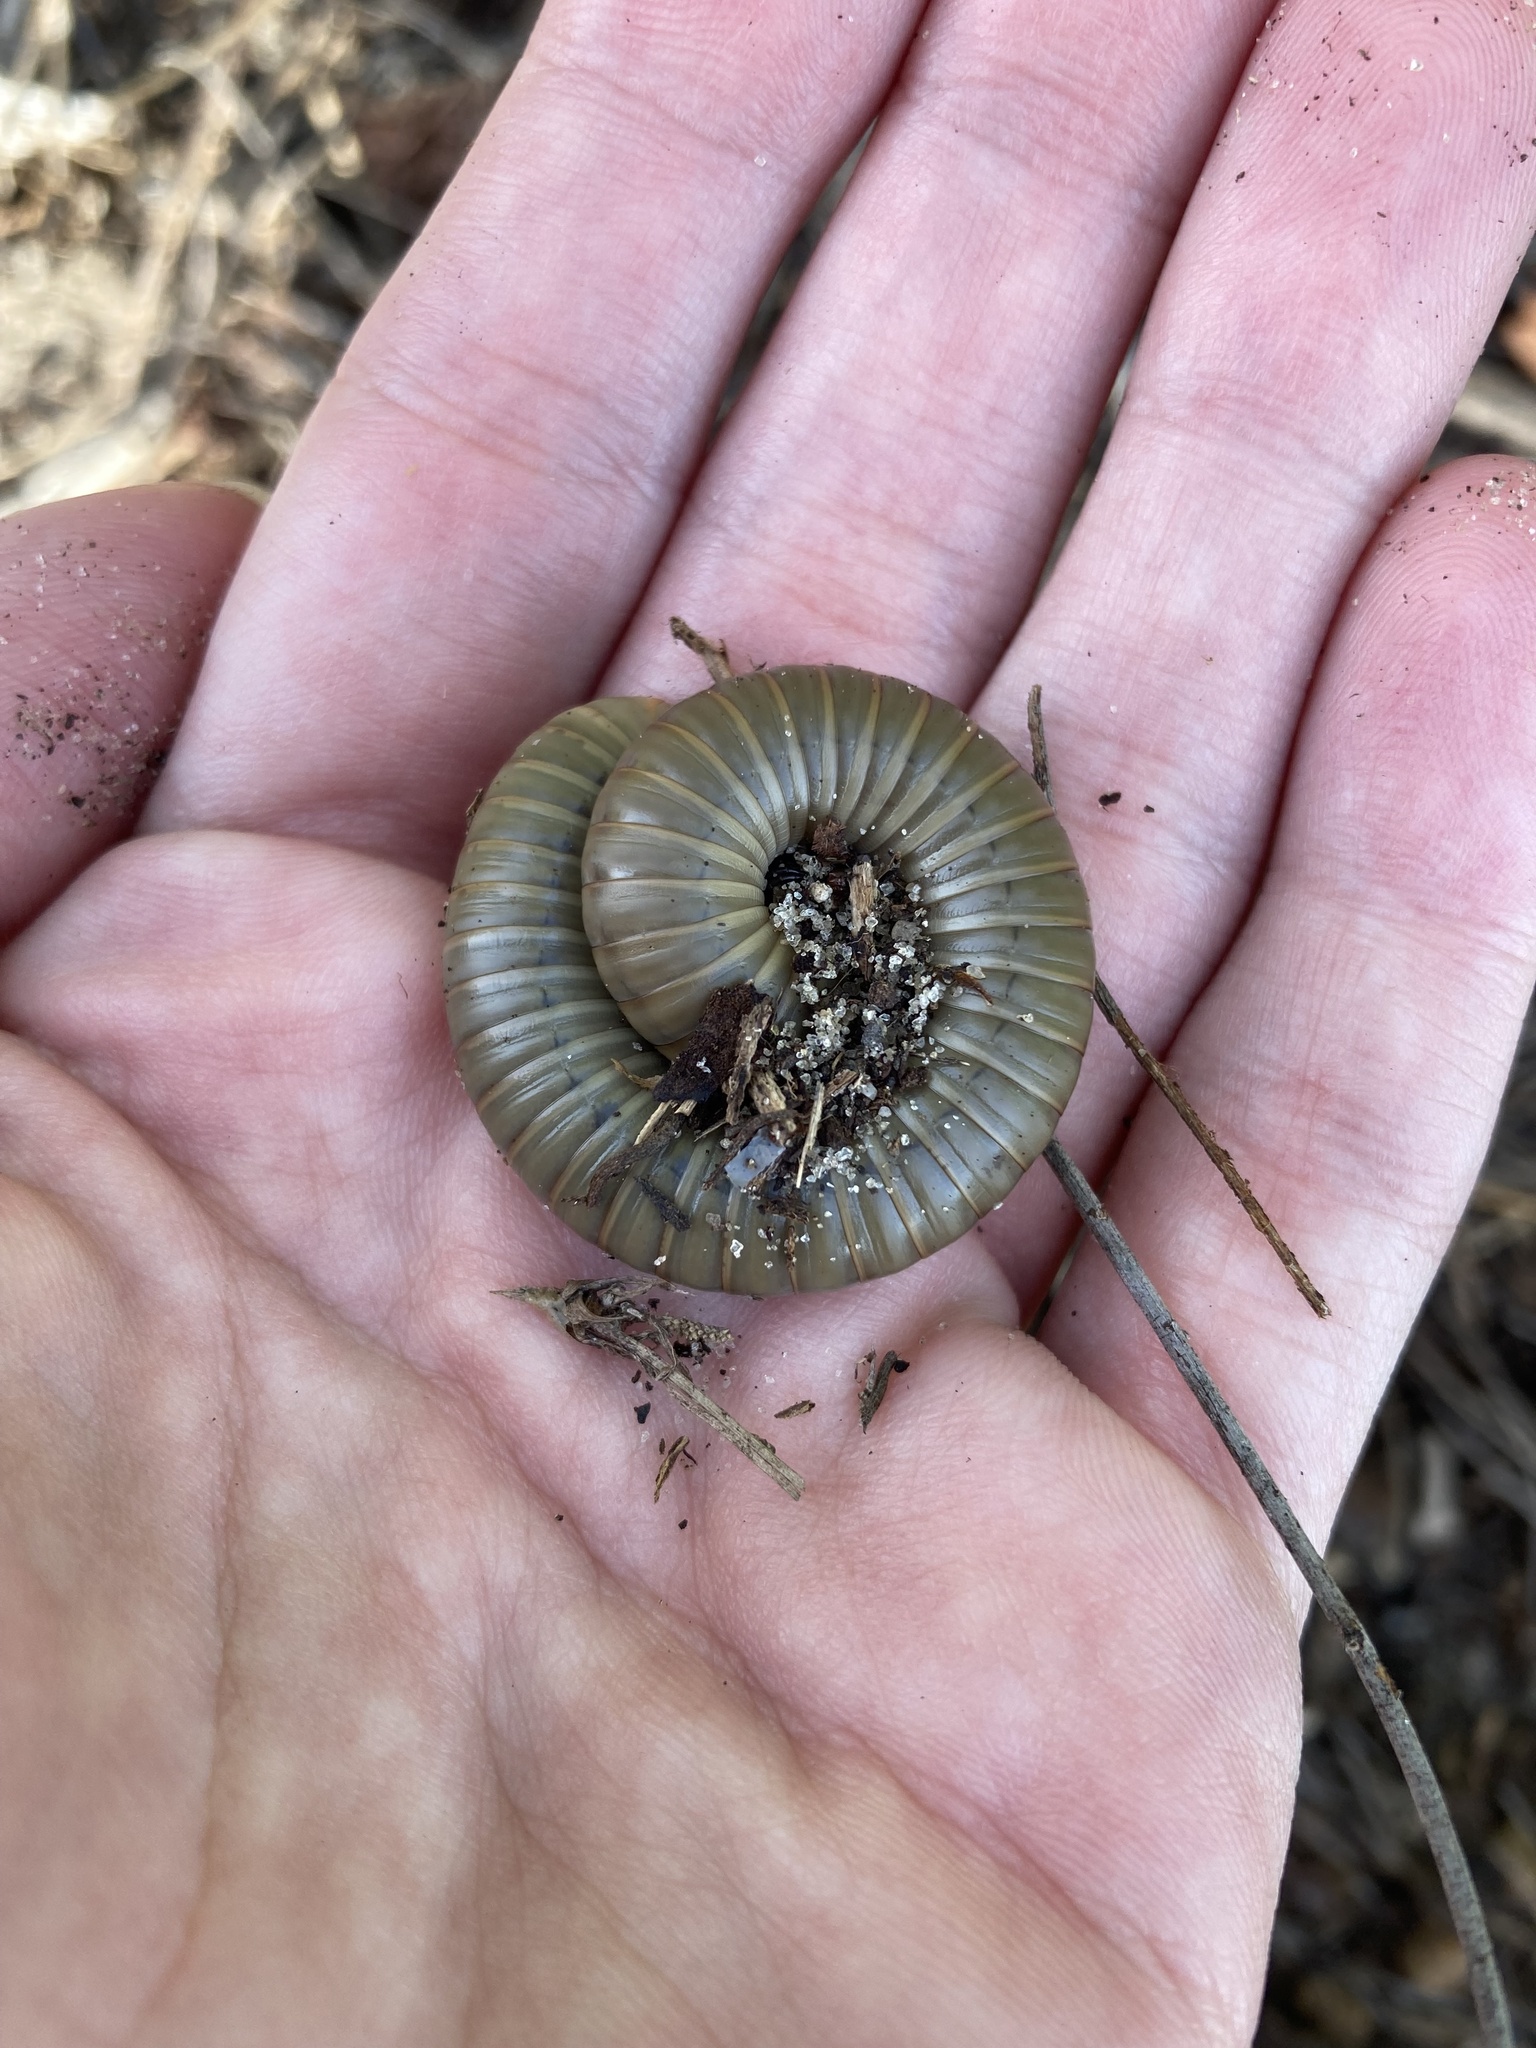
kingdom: Animalia
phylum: Arthropoda
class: Diplopoda
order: Spirobolida
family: Spirobolidae
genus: Narceus
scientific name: Narceus gordanus
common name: Grayish-green millipede
